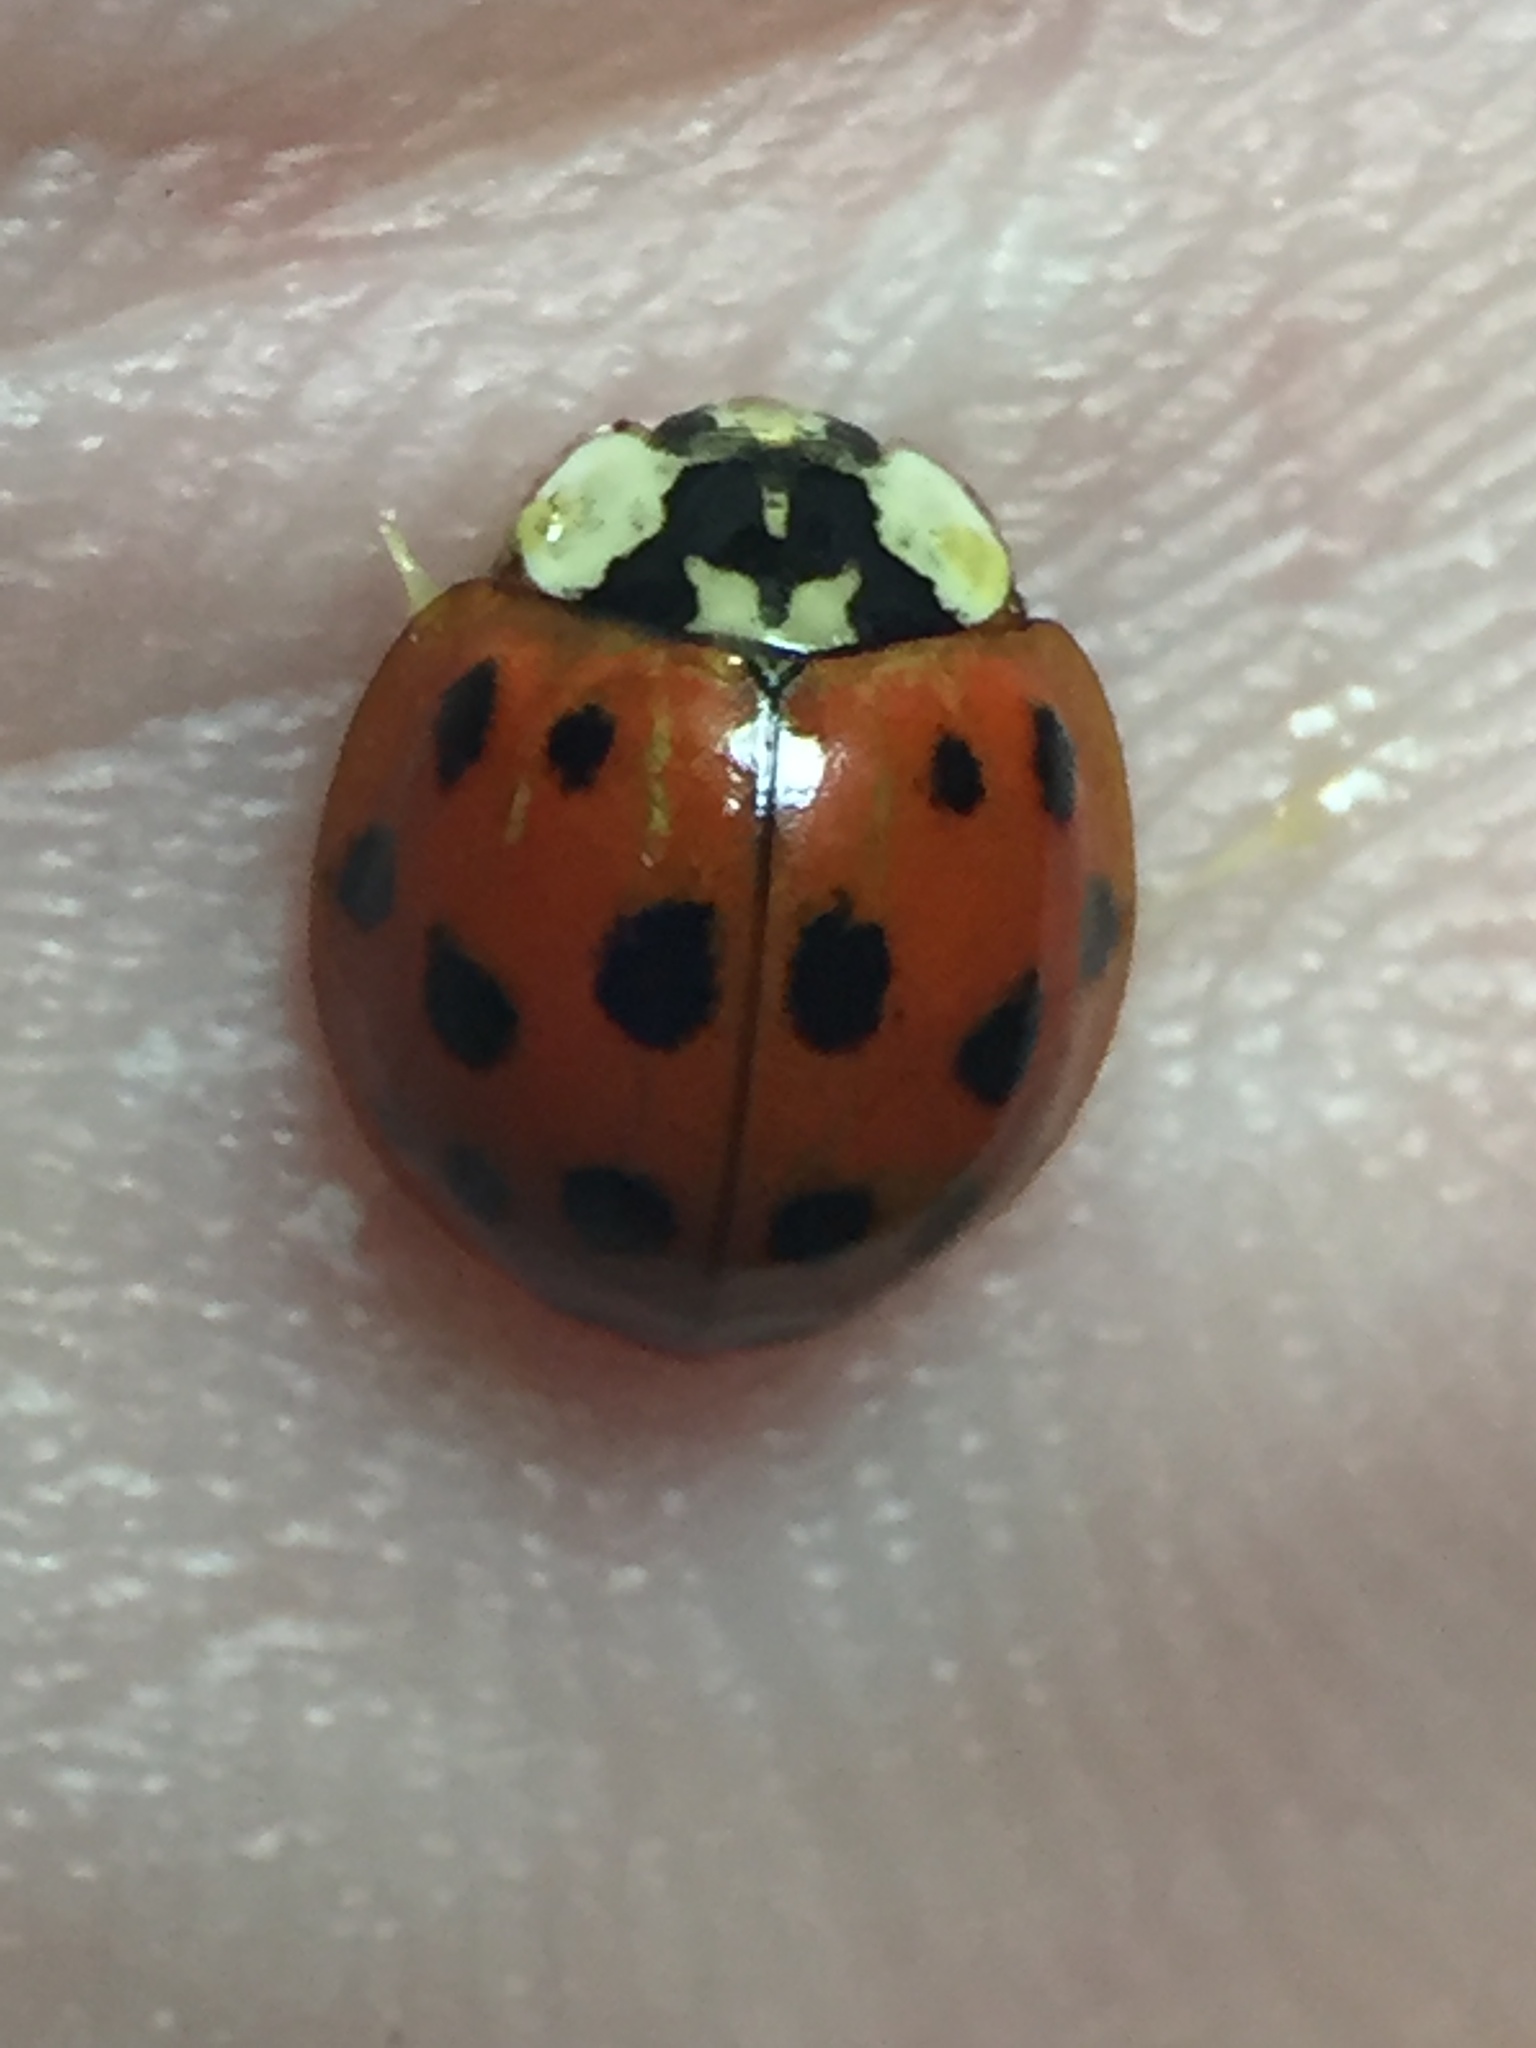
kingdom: Animalia
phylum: Arthropoda
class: Insecta
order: Coleoptera
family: Coccinellidae
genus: Harmonia
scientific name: Harmonia axyridis
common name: Harlequin ladybird
